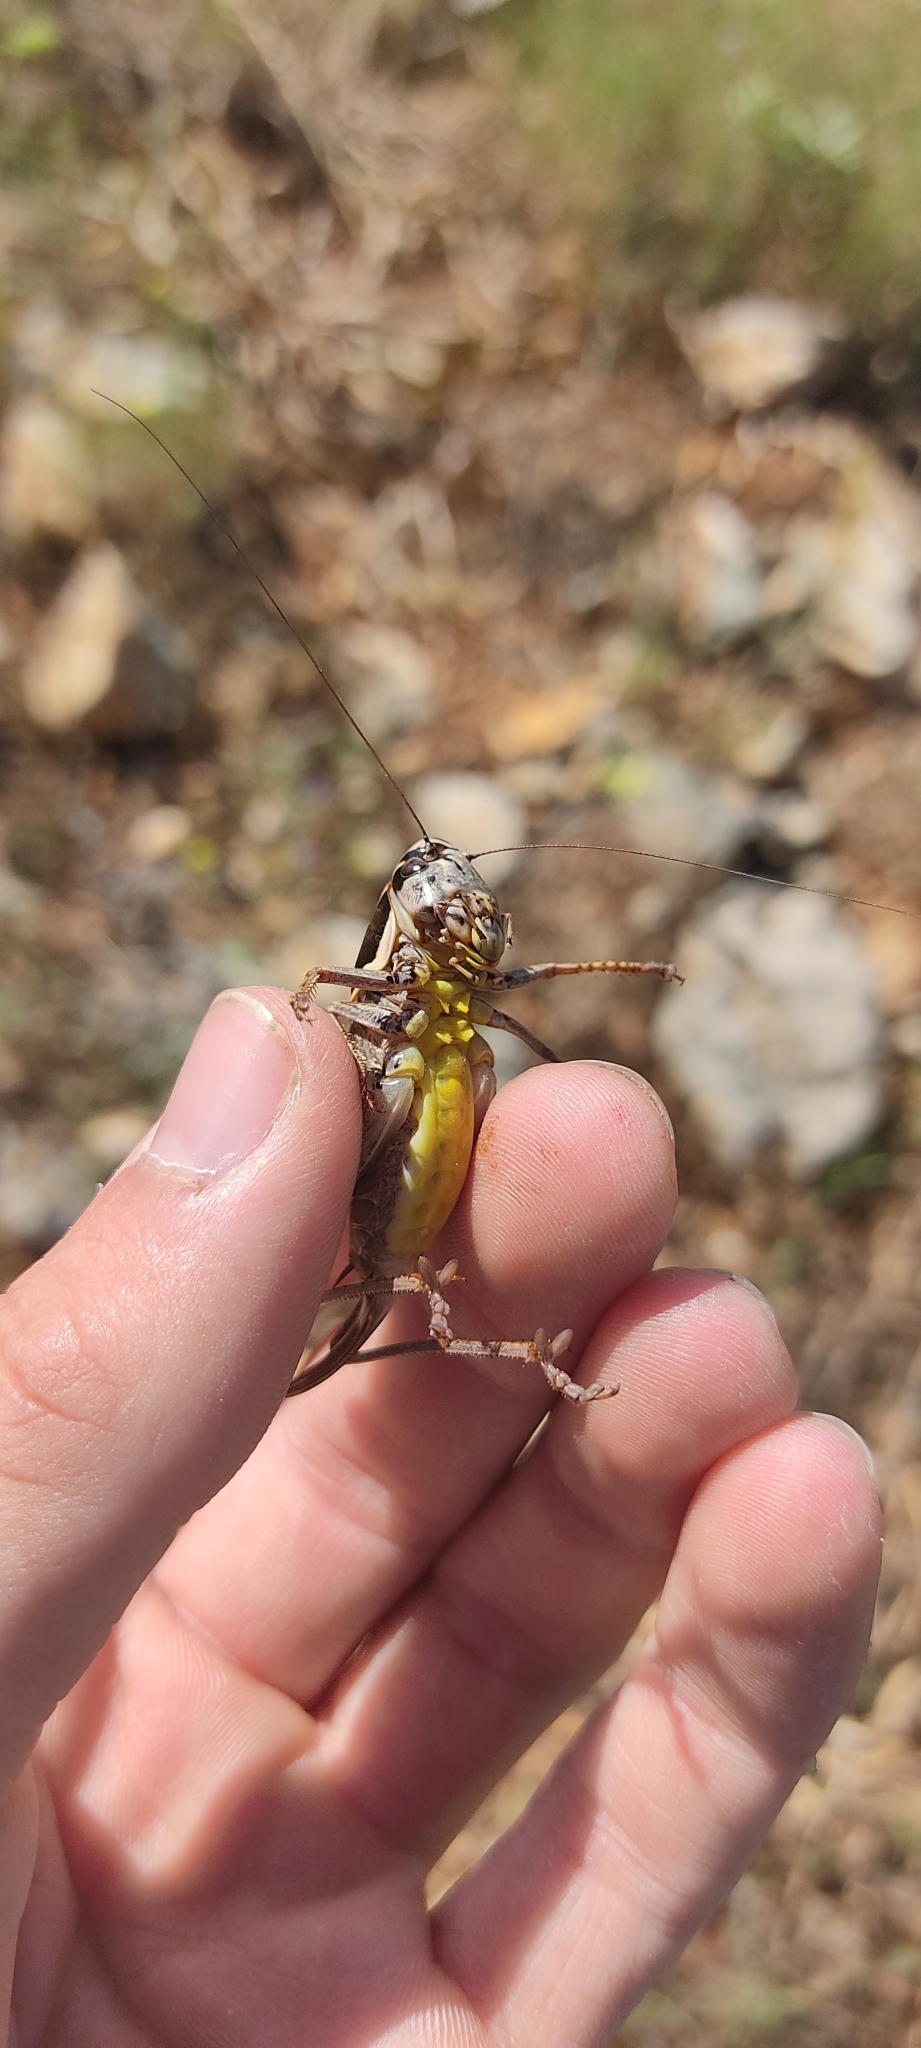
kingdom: Animalia
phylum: Arthropoda
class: Insecta
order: Orthoptera
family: Tettigoniidae
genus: Pholidoptera
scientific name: Pholidoptera femorata
